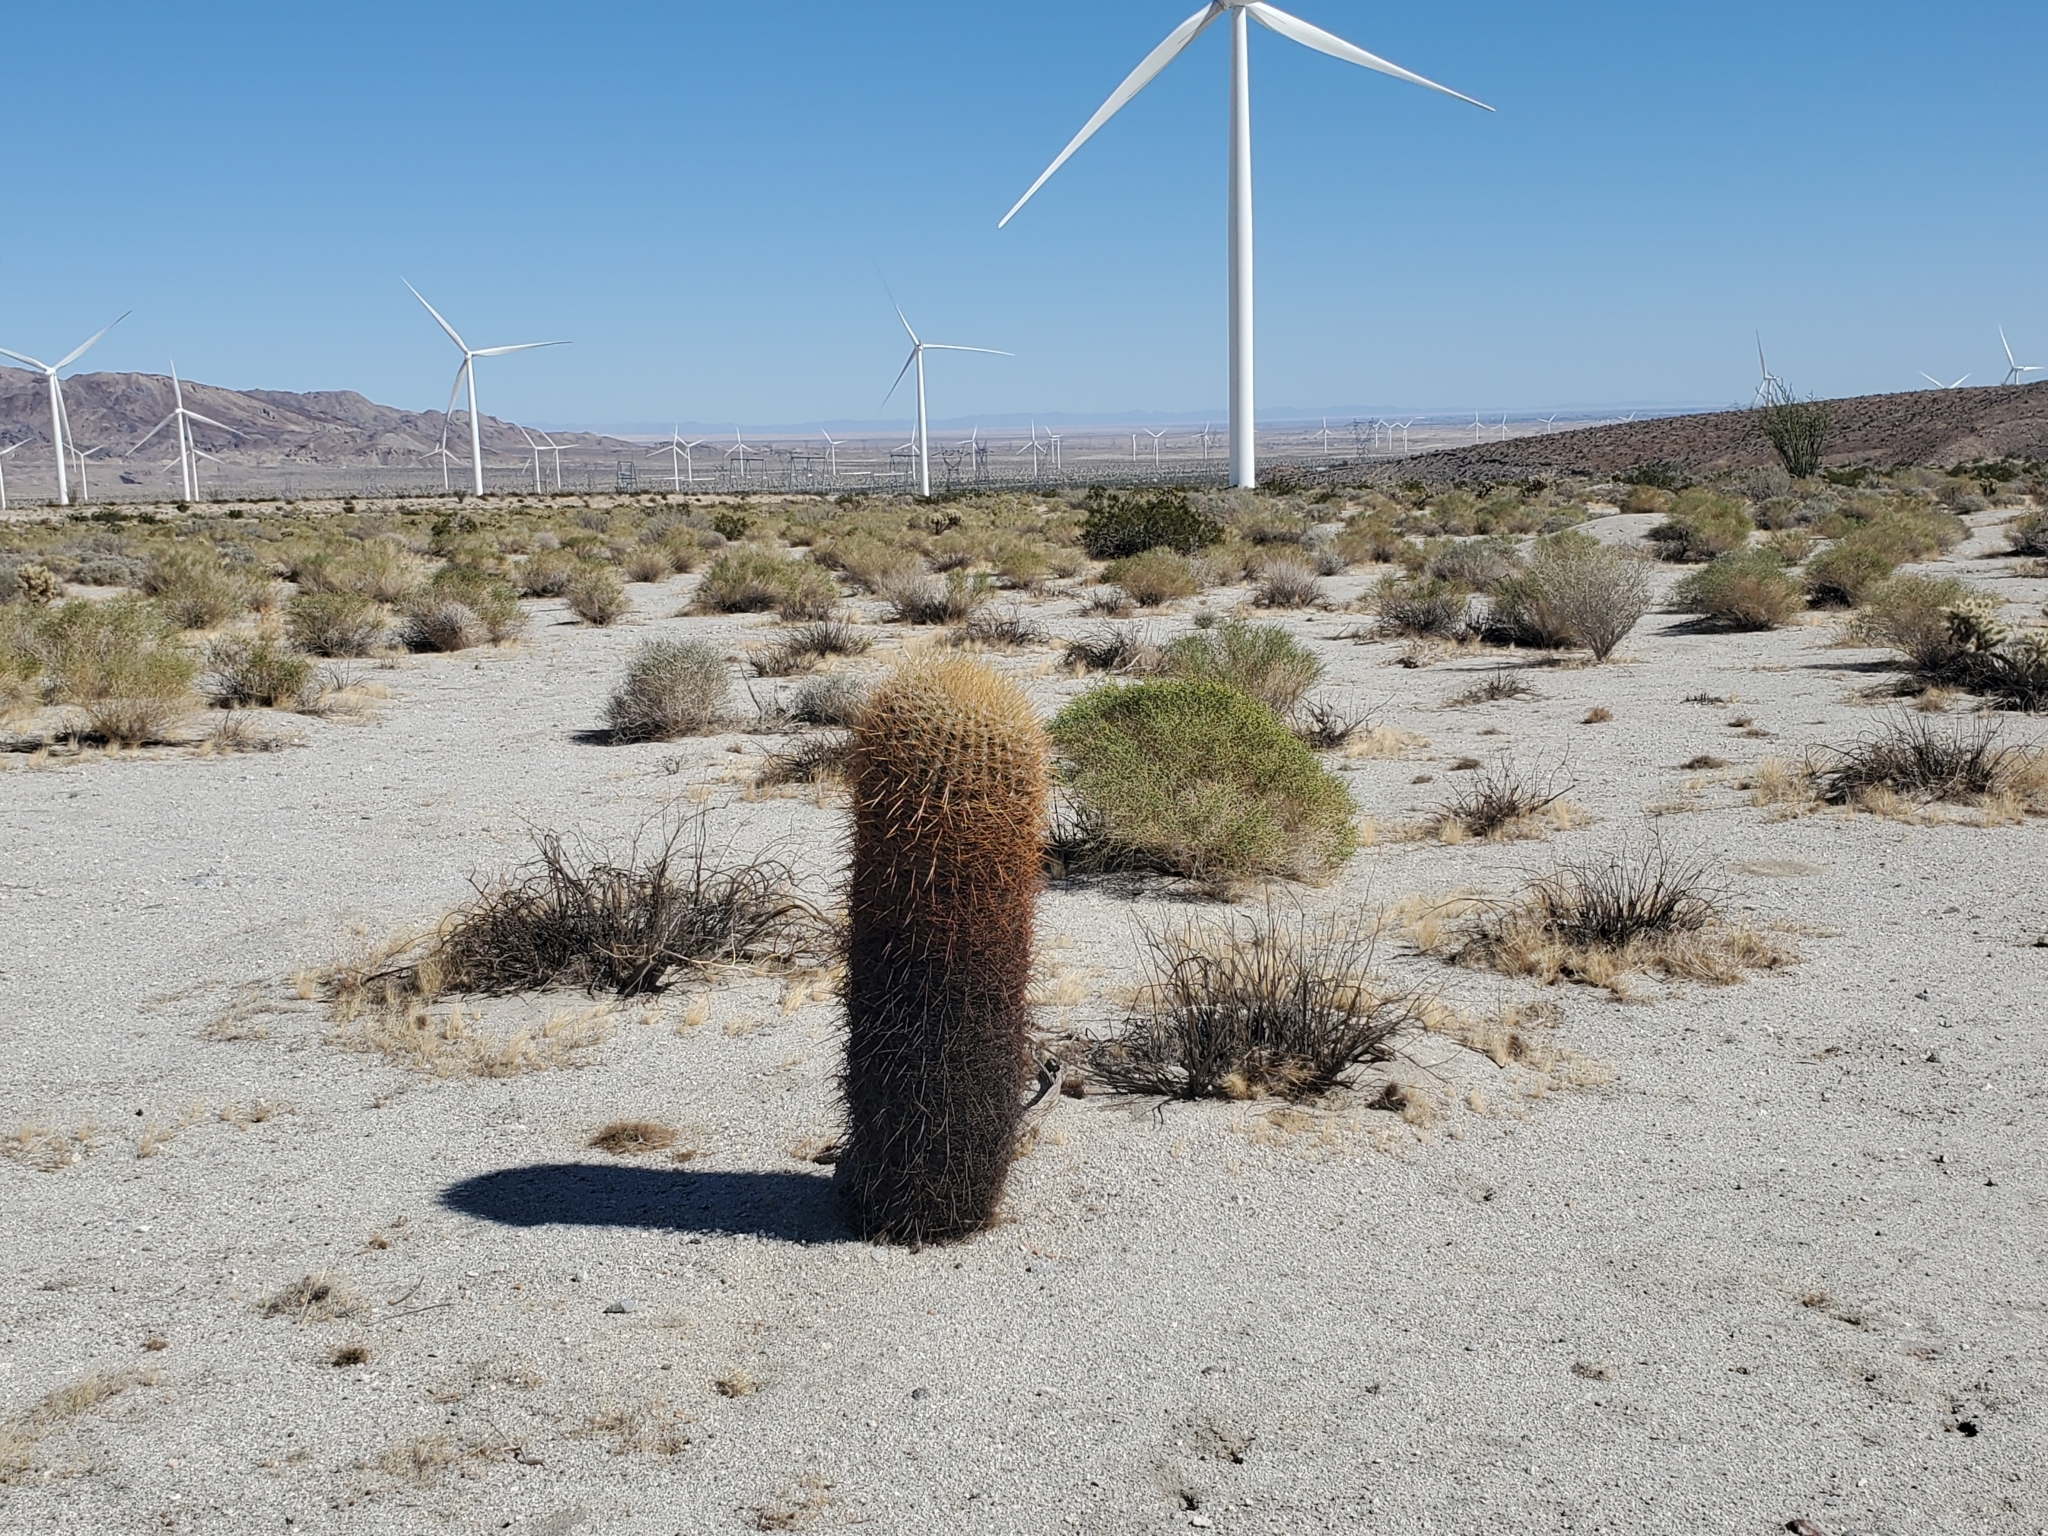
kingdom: Plantae
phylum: Tracheophyta
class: Magnoliopsida
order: Caryophyllales
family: Cactaceae
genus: Ferocactus
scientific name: Ferocactus cylindraceus
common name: California barrel cactus
